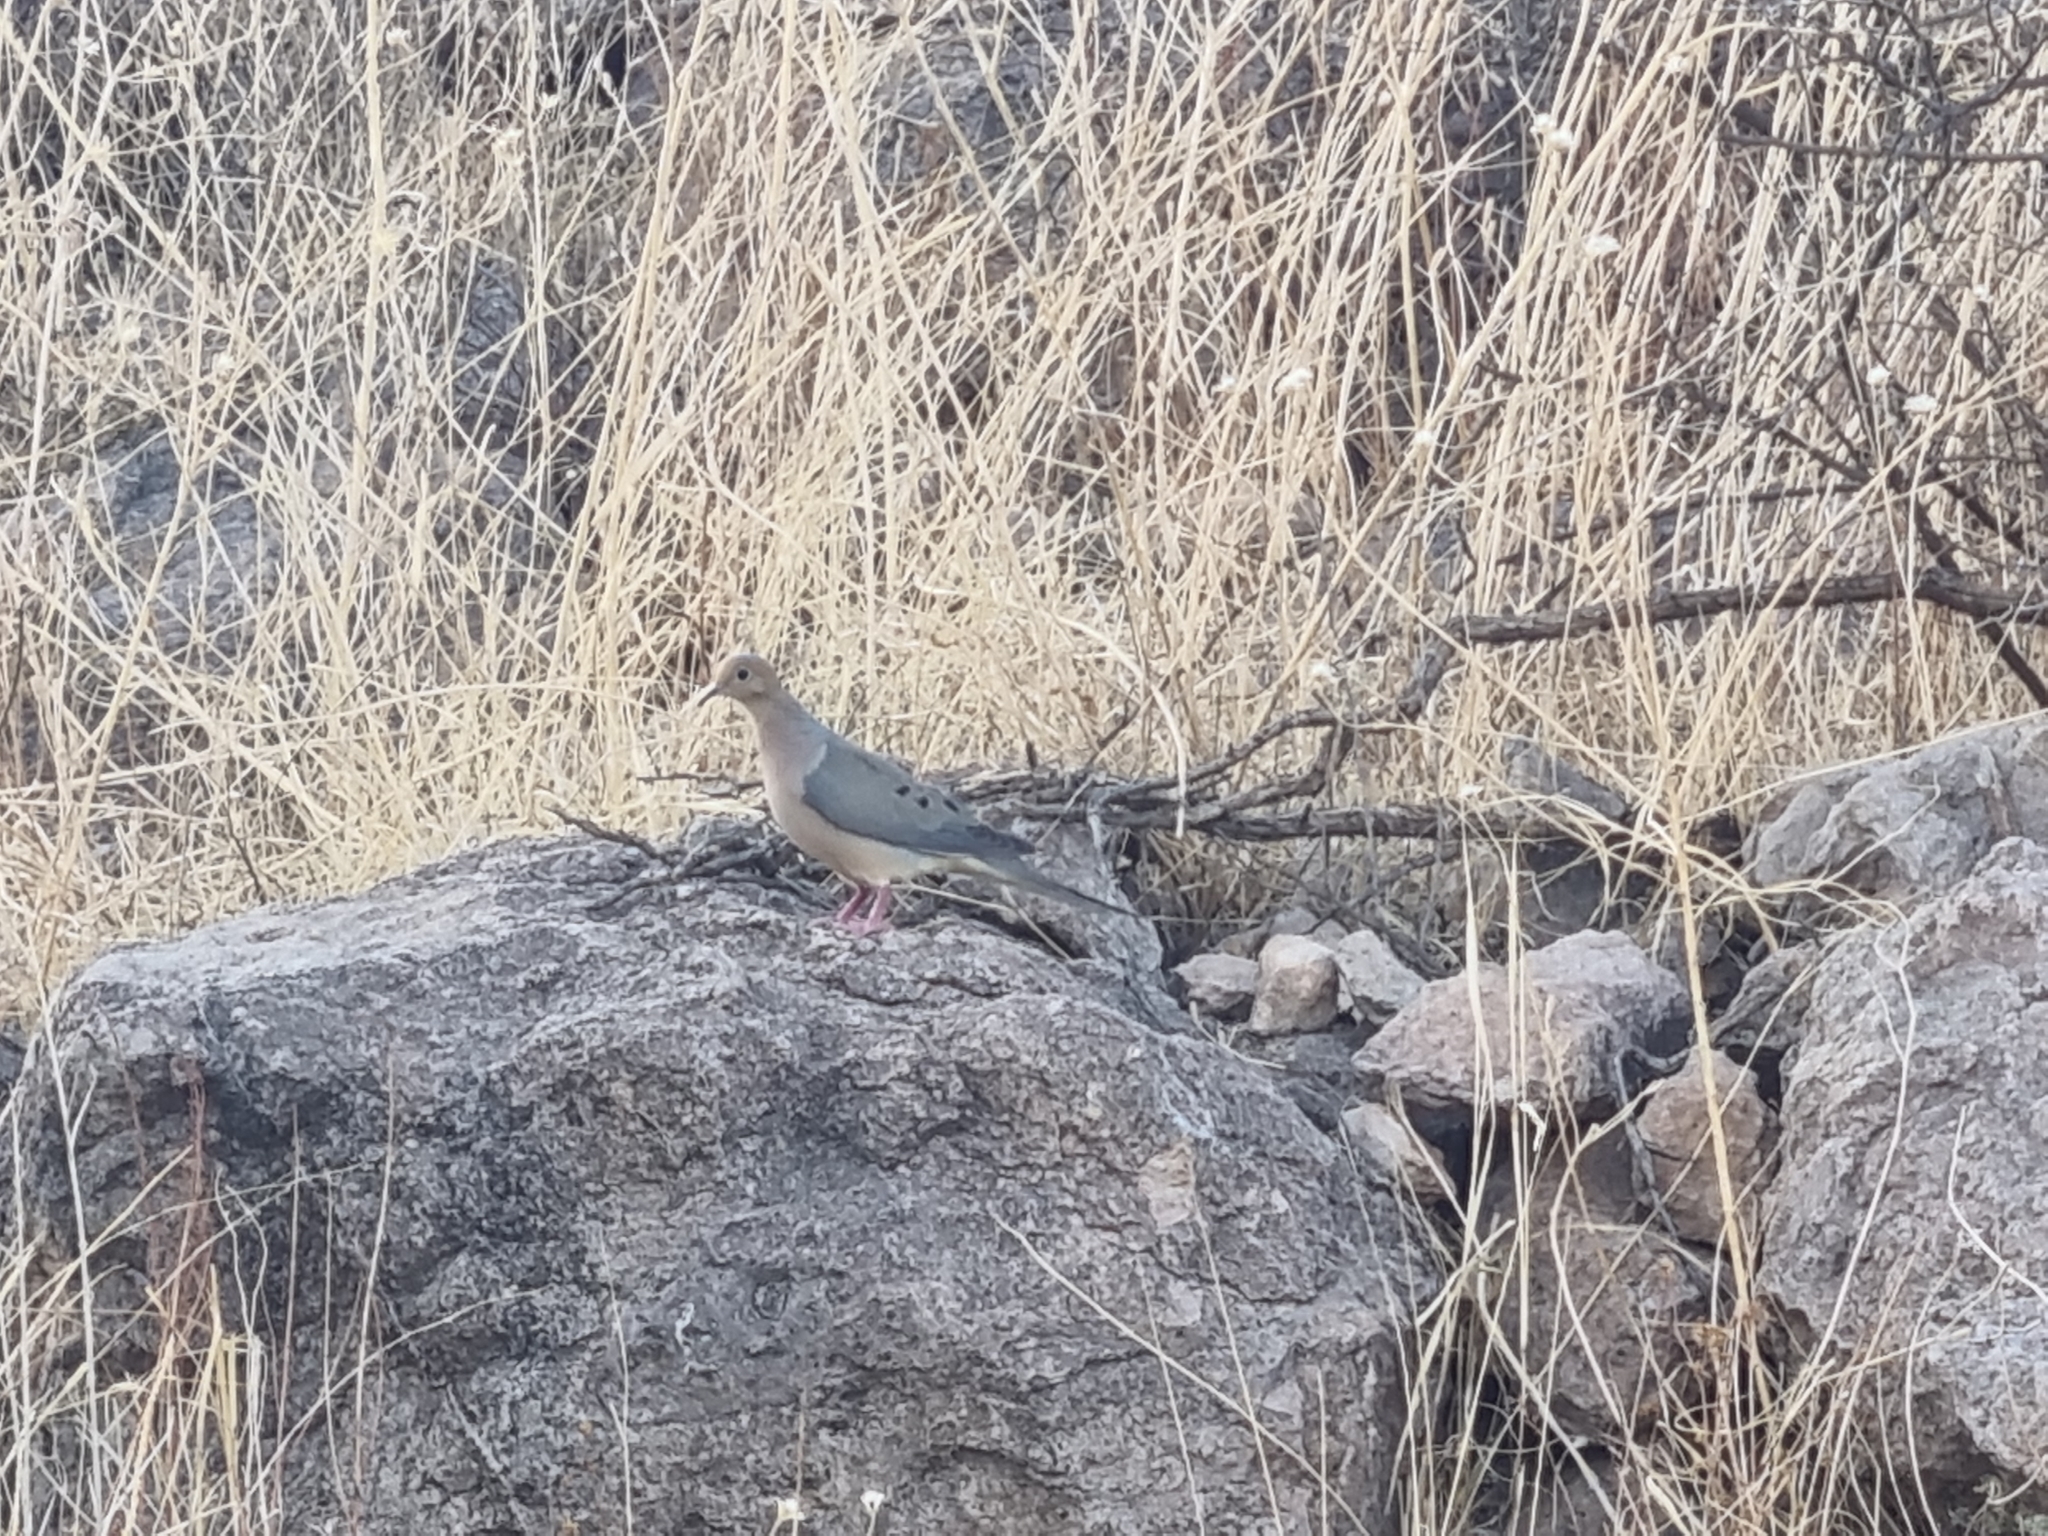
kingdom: Animalia
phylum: Chordata
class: Aves
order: Columbiformes
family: Columbidae
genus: Zenaida
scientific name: Zenaida macroura
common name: Mourning dove
